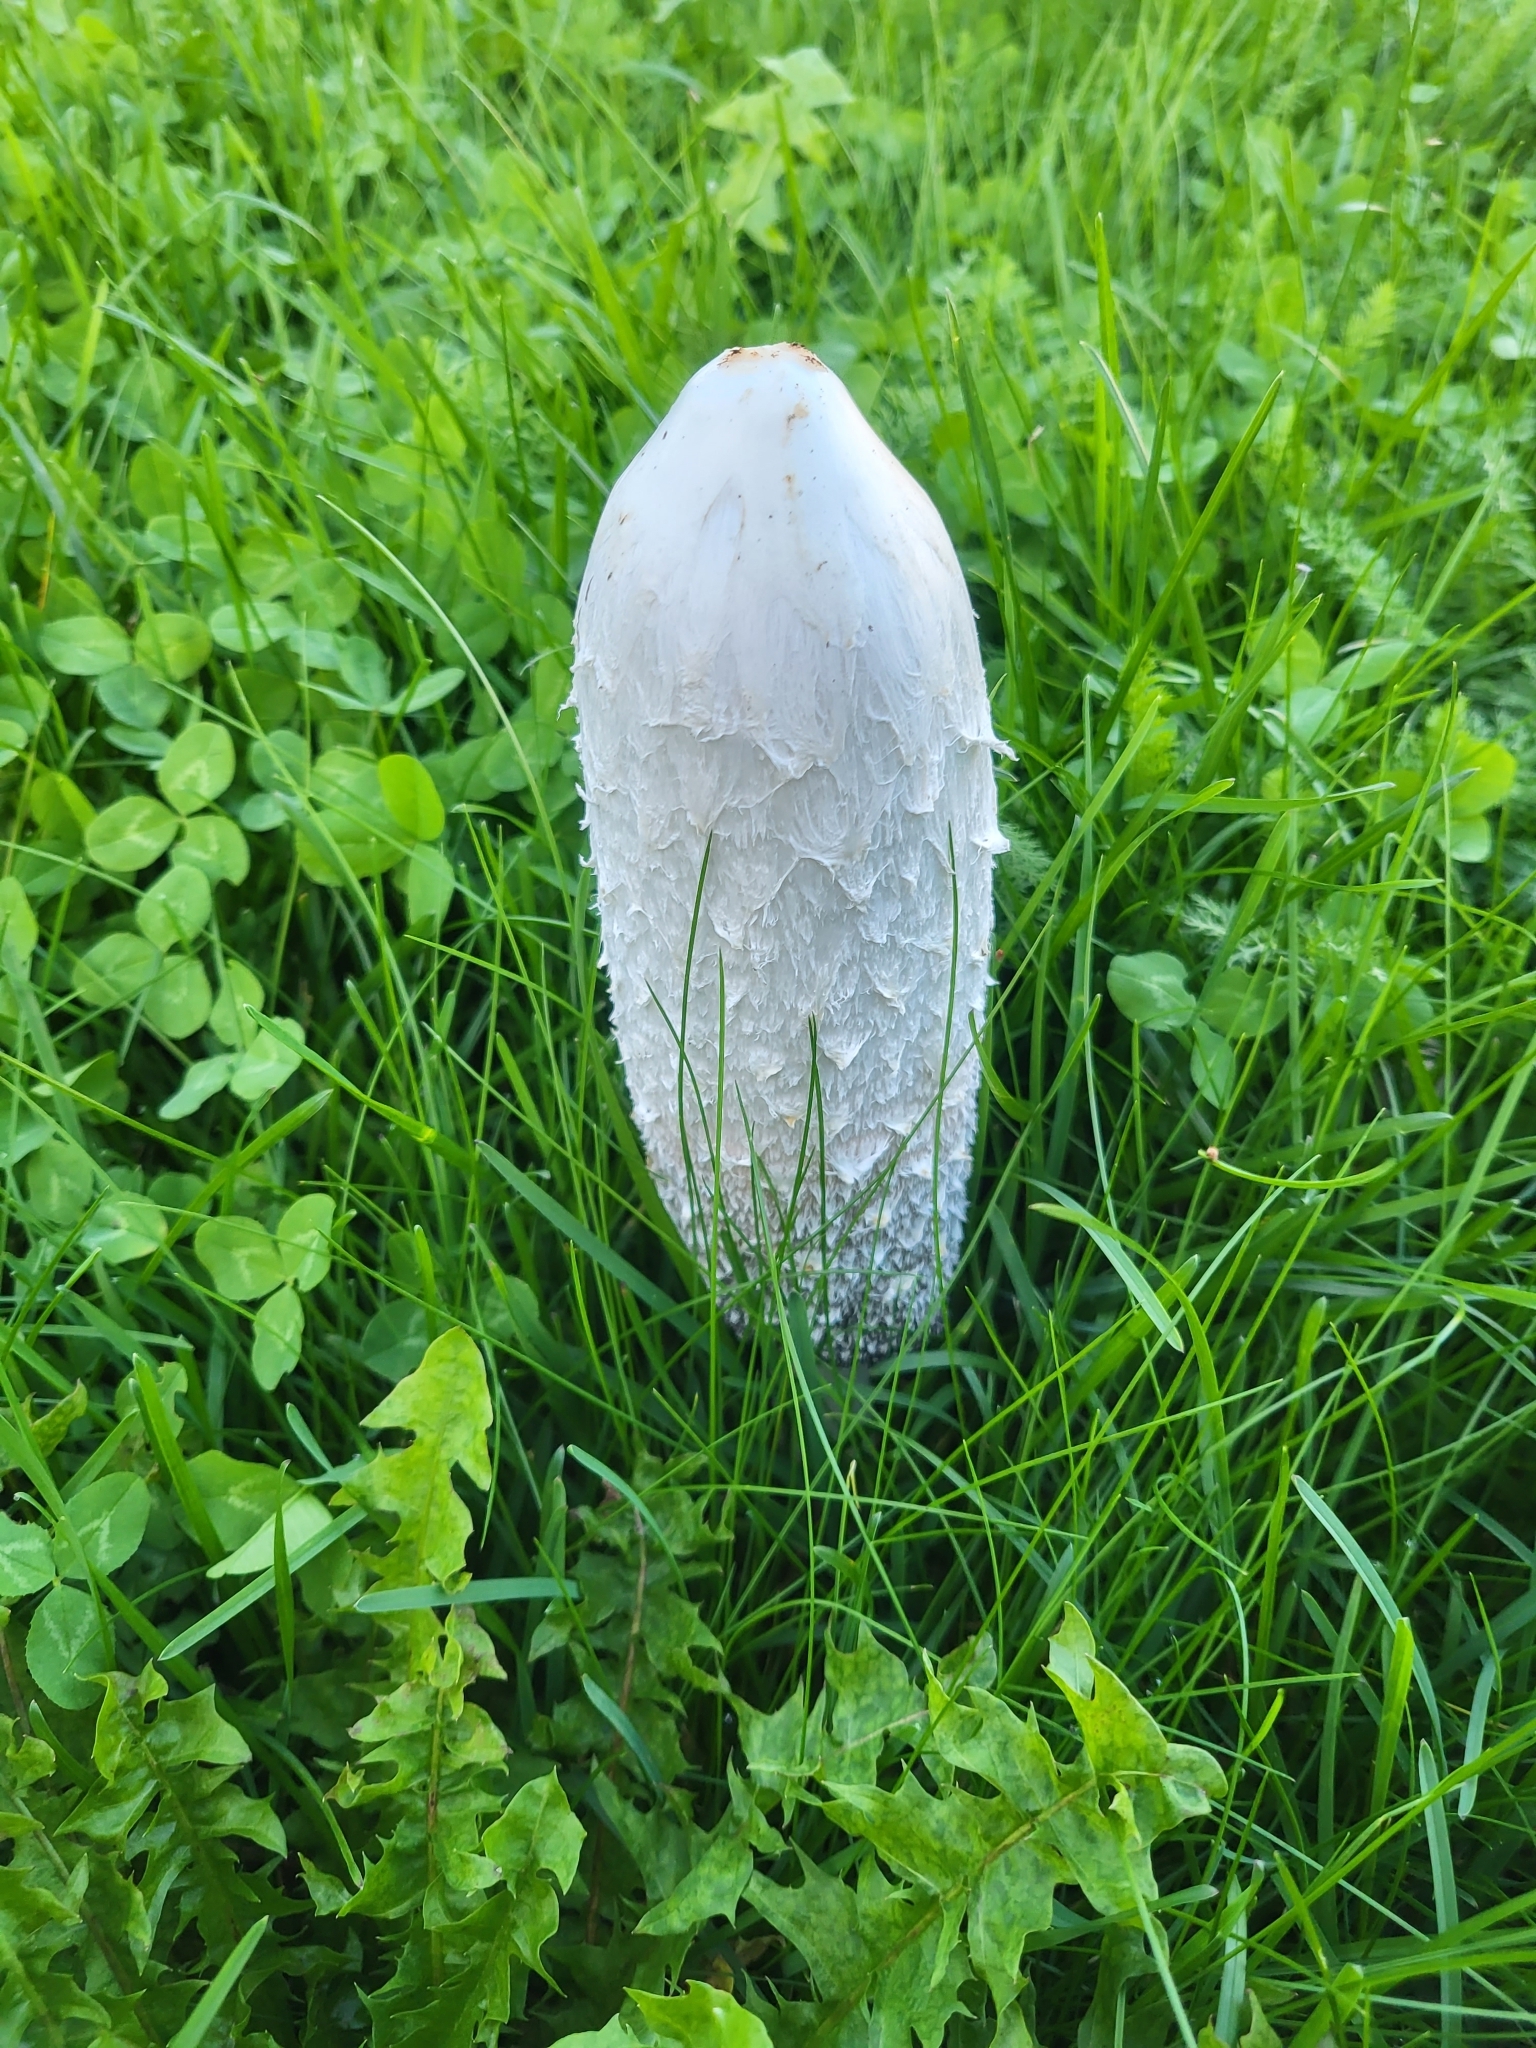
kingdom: Fungi
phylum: Basidiomycota
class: Agaricomycetes
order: Agaricales
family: Agaricaceae
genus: Coprinus
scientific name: Coprinus comatus
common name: Lawyer's wig
